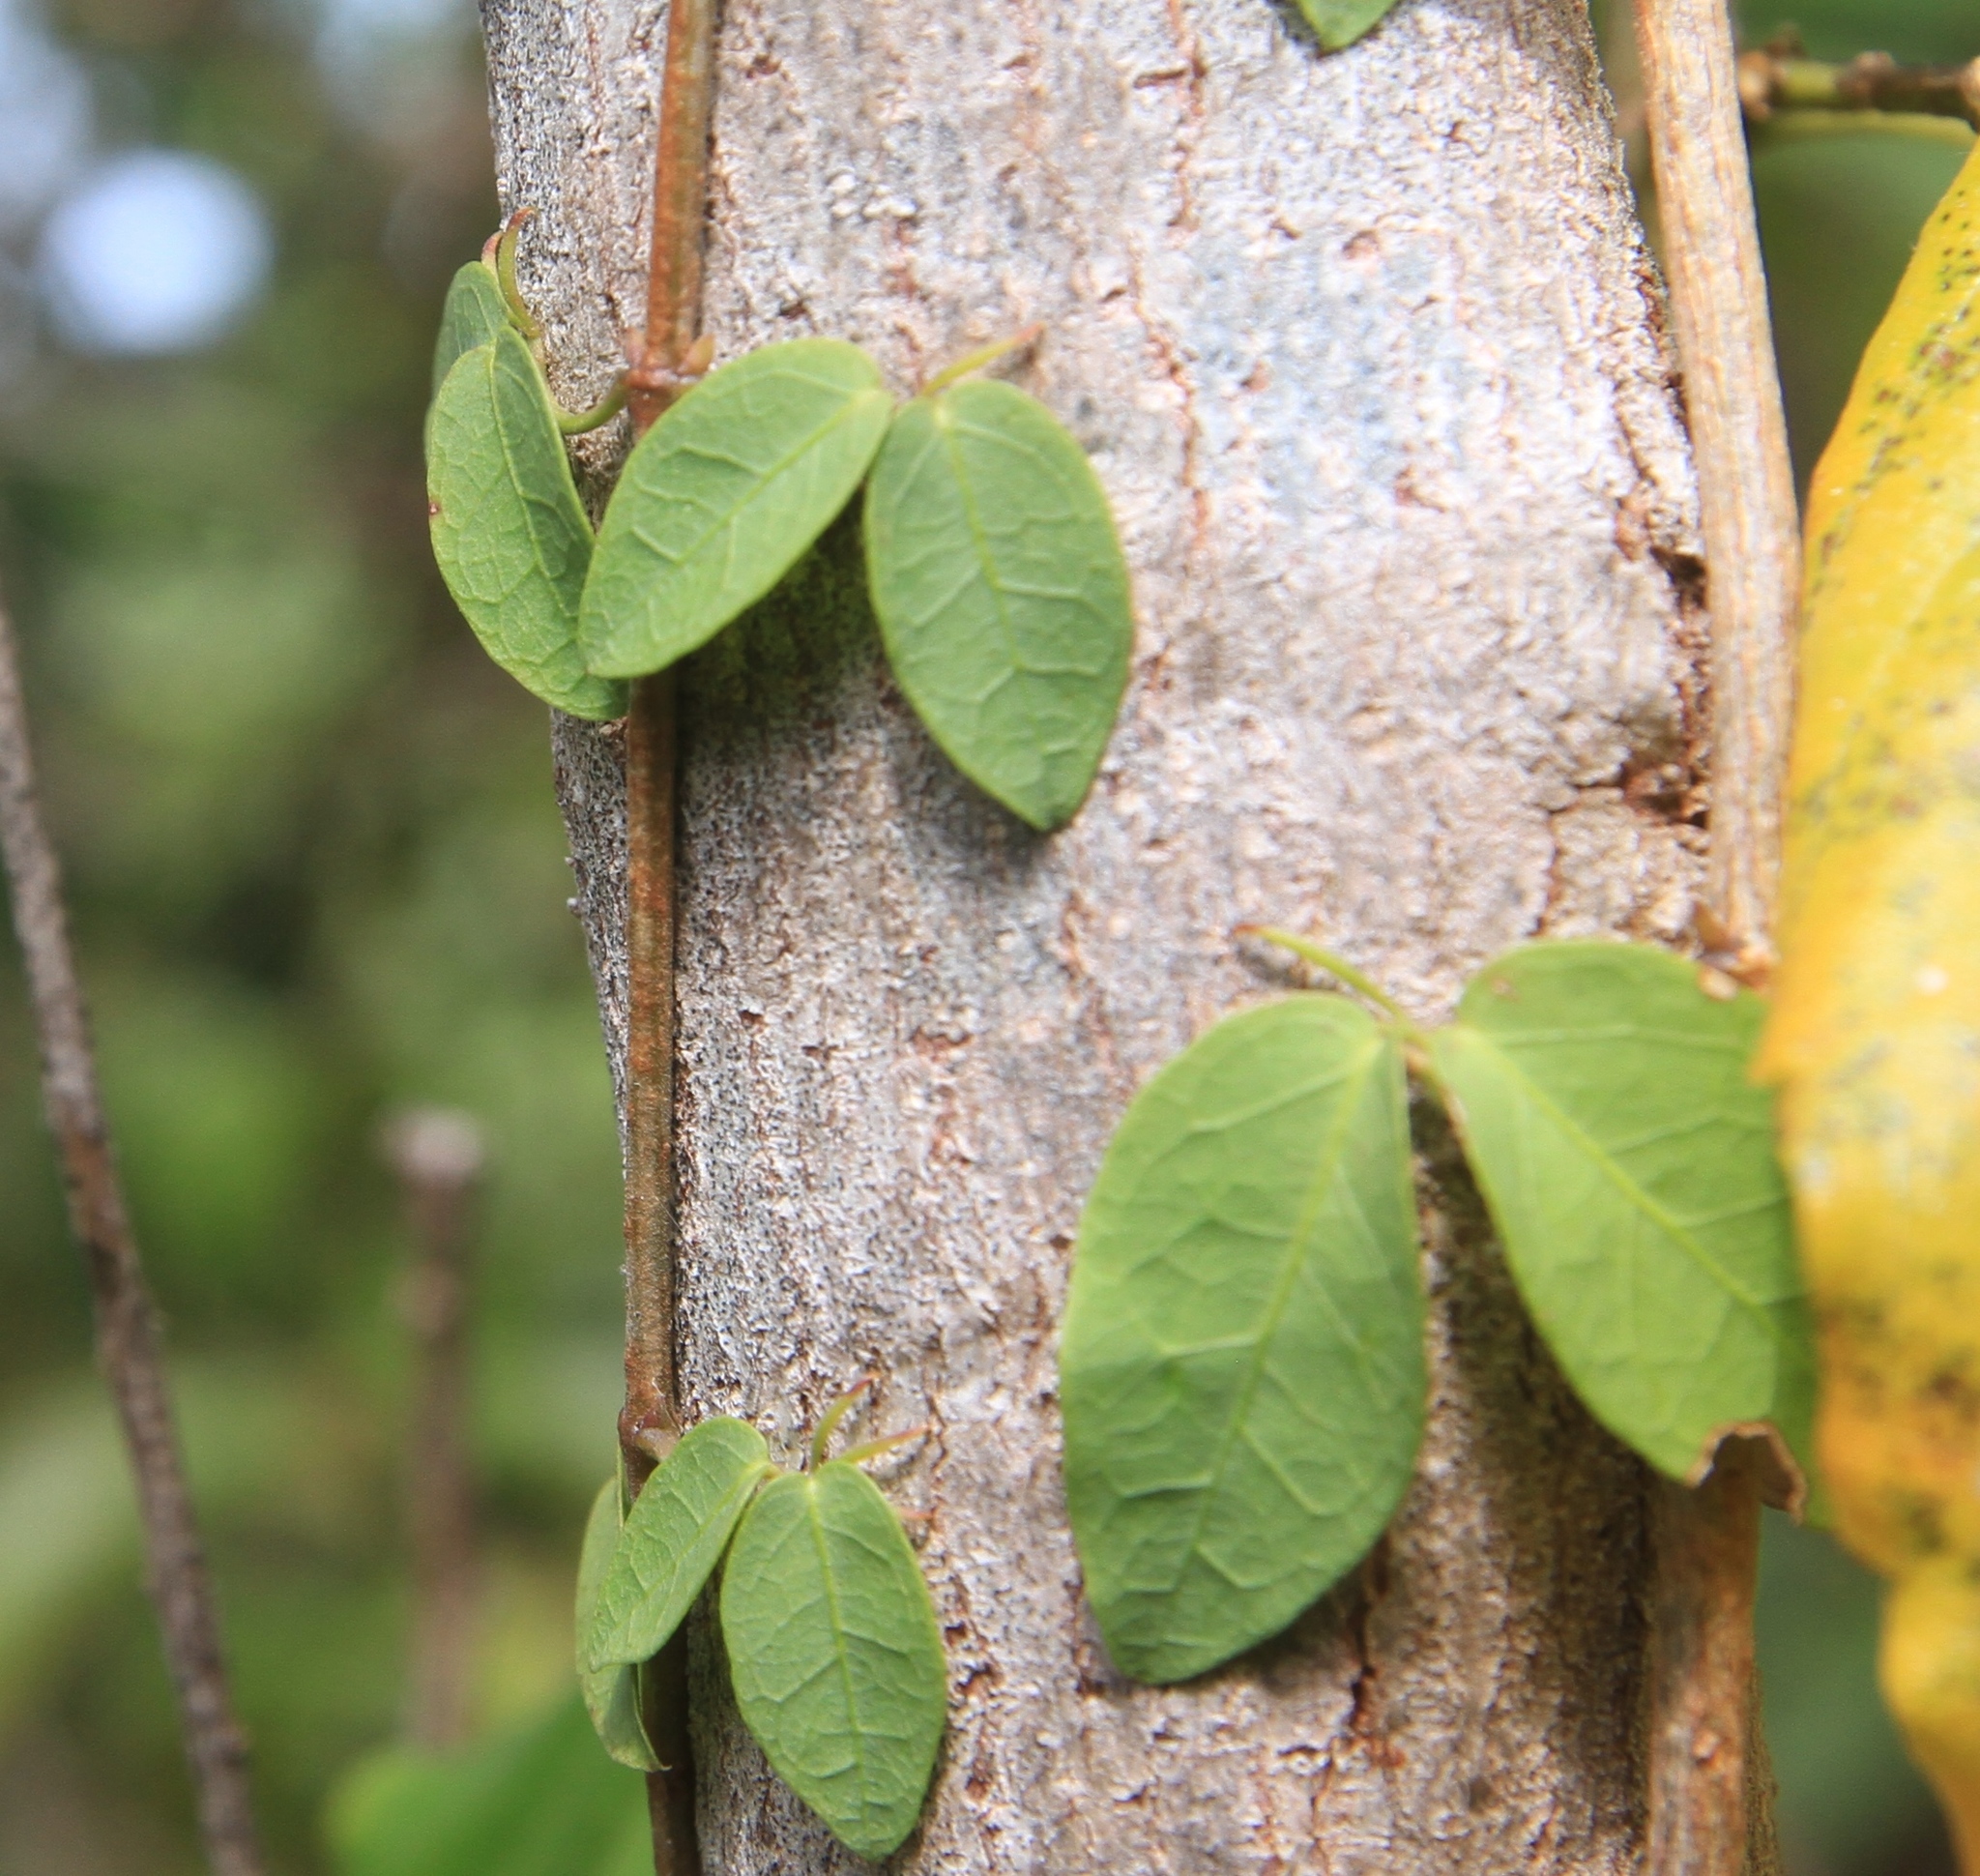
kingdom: Plantae
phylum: Tracheophyta
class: Magnoliopsida
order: Lamiales
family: Bignoniaceae
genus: Dolichandra
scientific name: Dolichandra unguis-cati
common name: Catclaw vine
